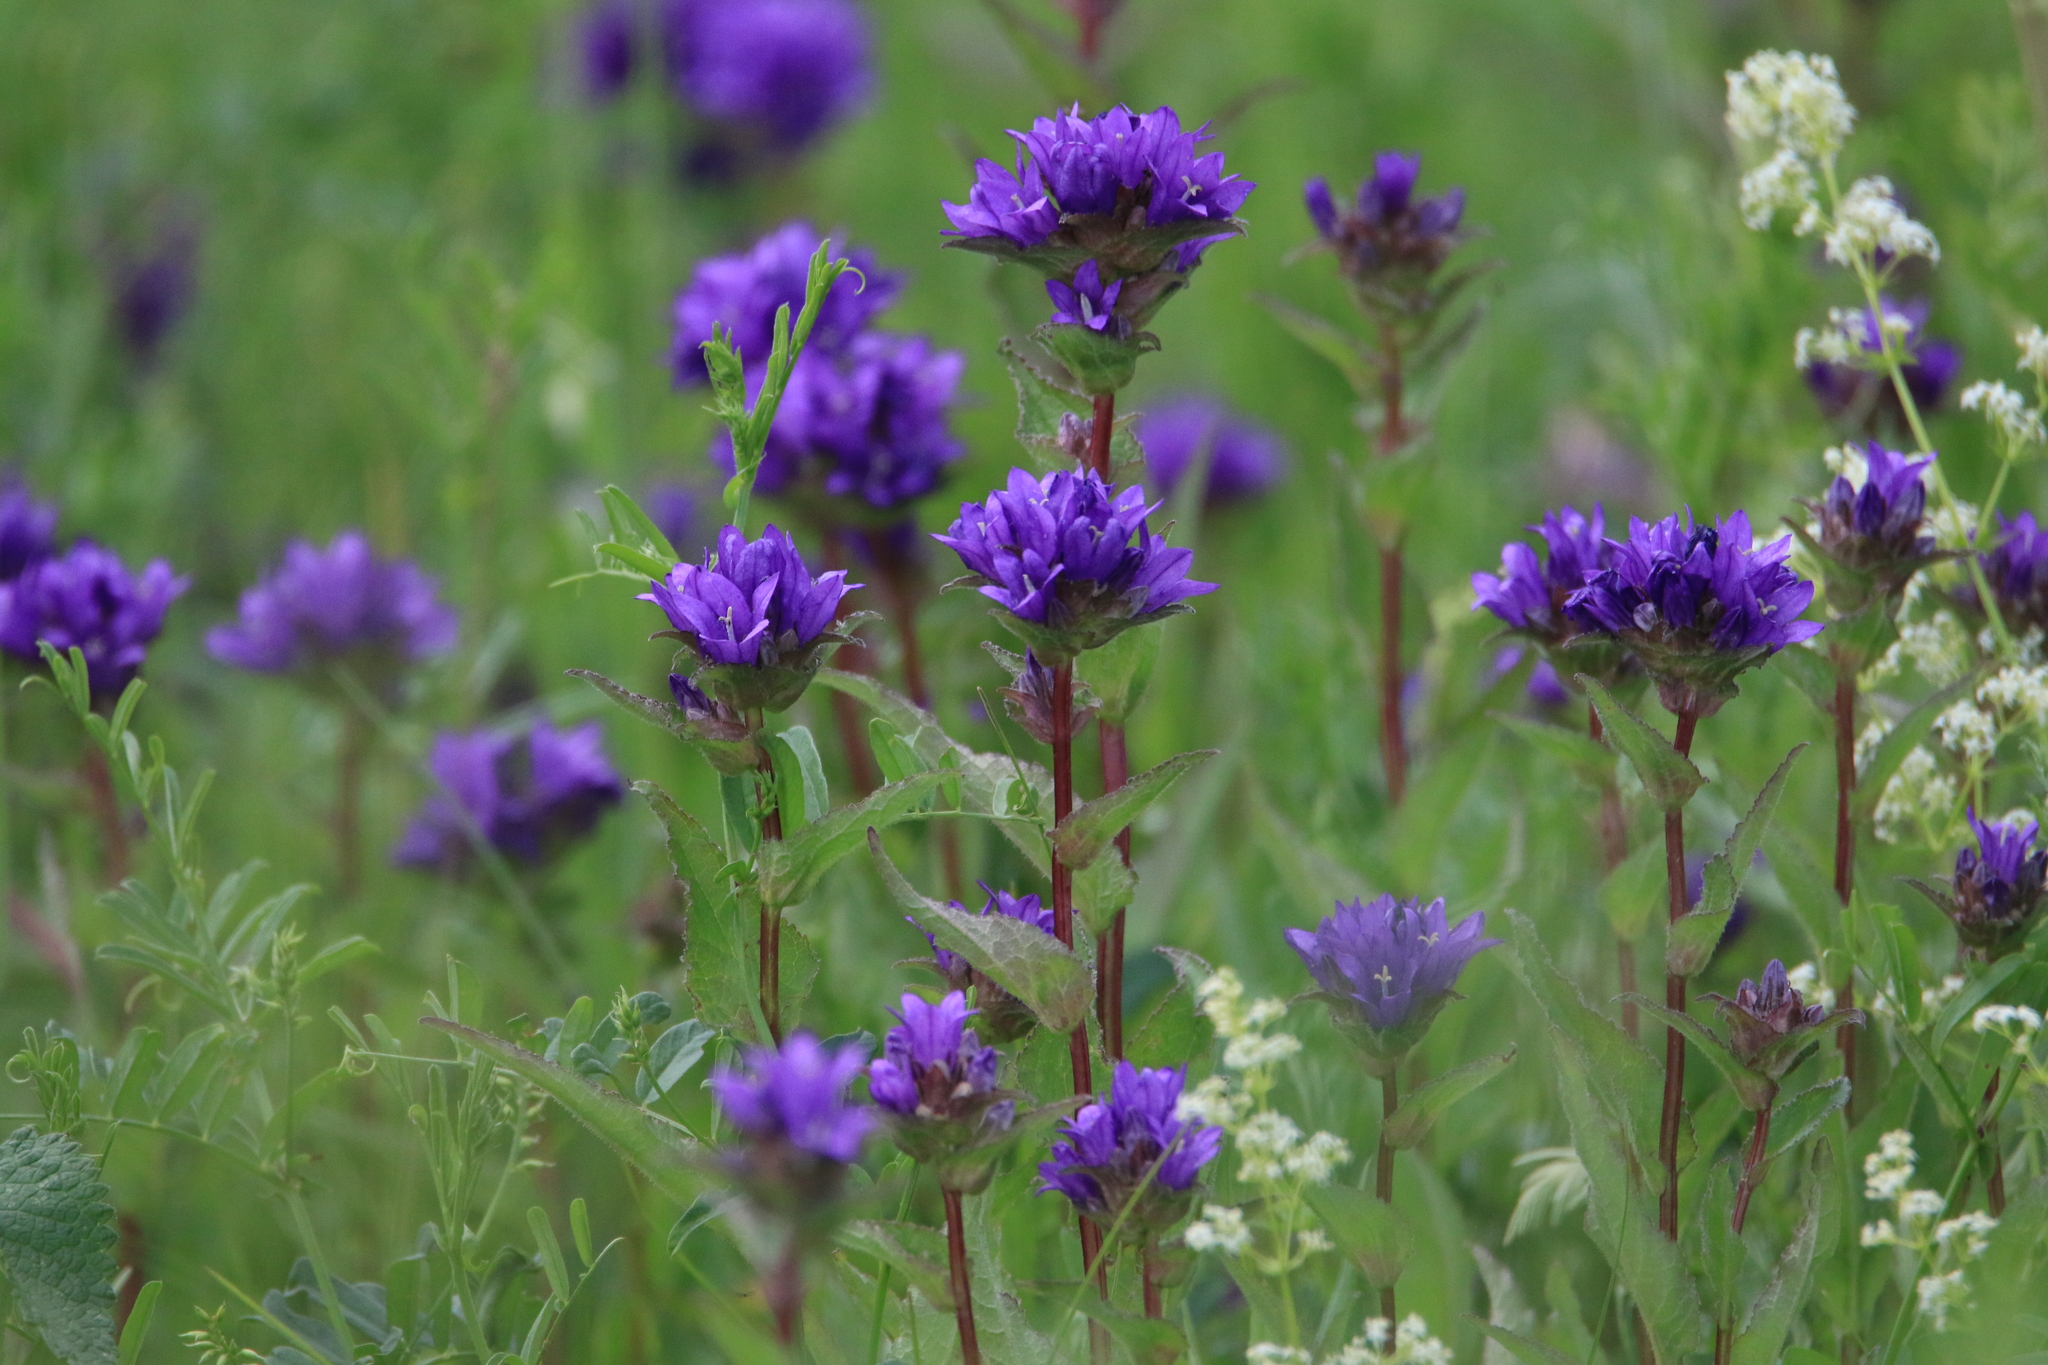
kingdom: Plantae
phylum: Tracheophyta
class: Magnoliopsida
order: Asterales
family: Campanulaceae
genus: Campanula
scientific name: Campanula glomerata
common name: Clustered bellflower
